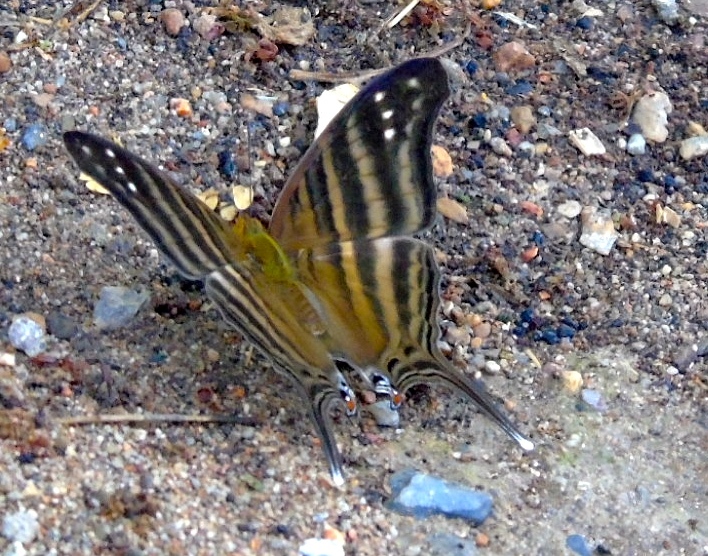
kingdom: Animalia
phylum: Arthropoda
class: Insecta
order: Lepidoptera
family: Nymphalidae
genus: Marpesia
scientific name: Marpesia chiron
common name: Many-banded daggerwing
